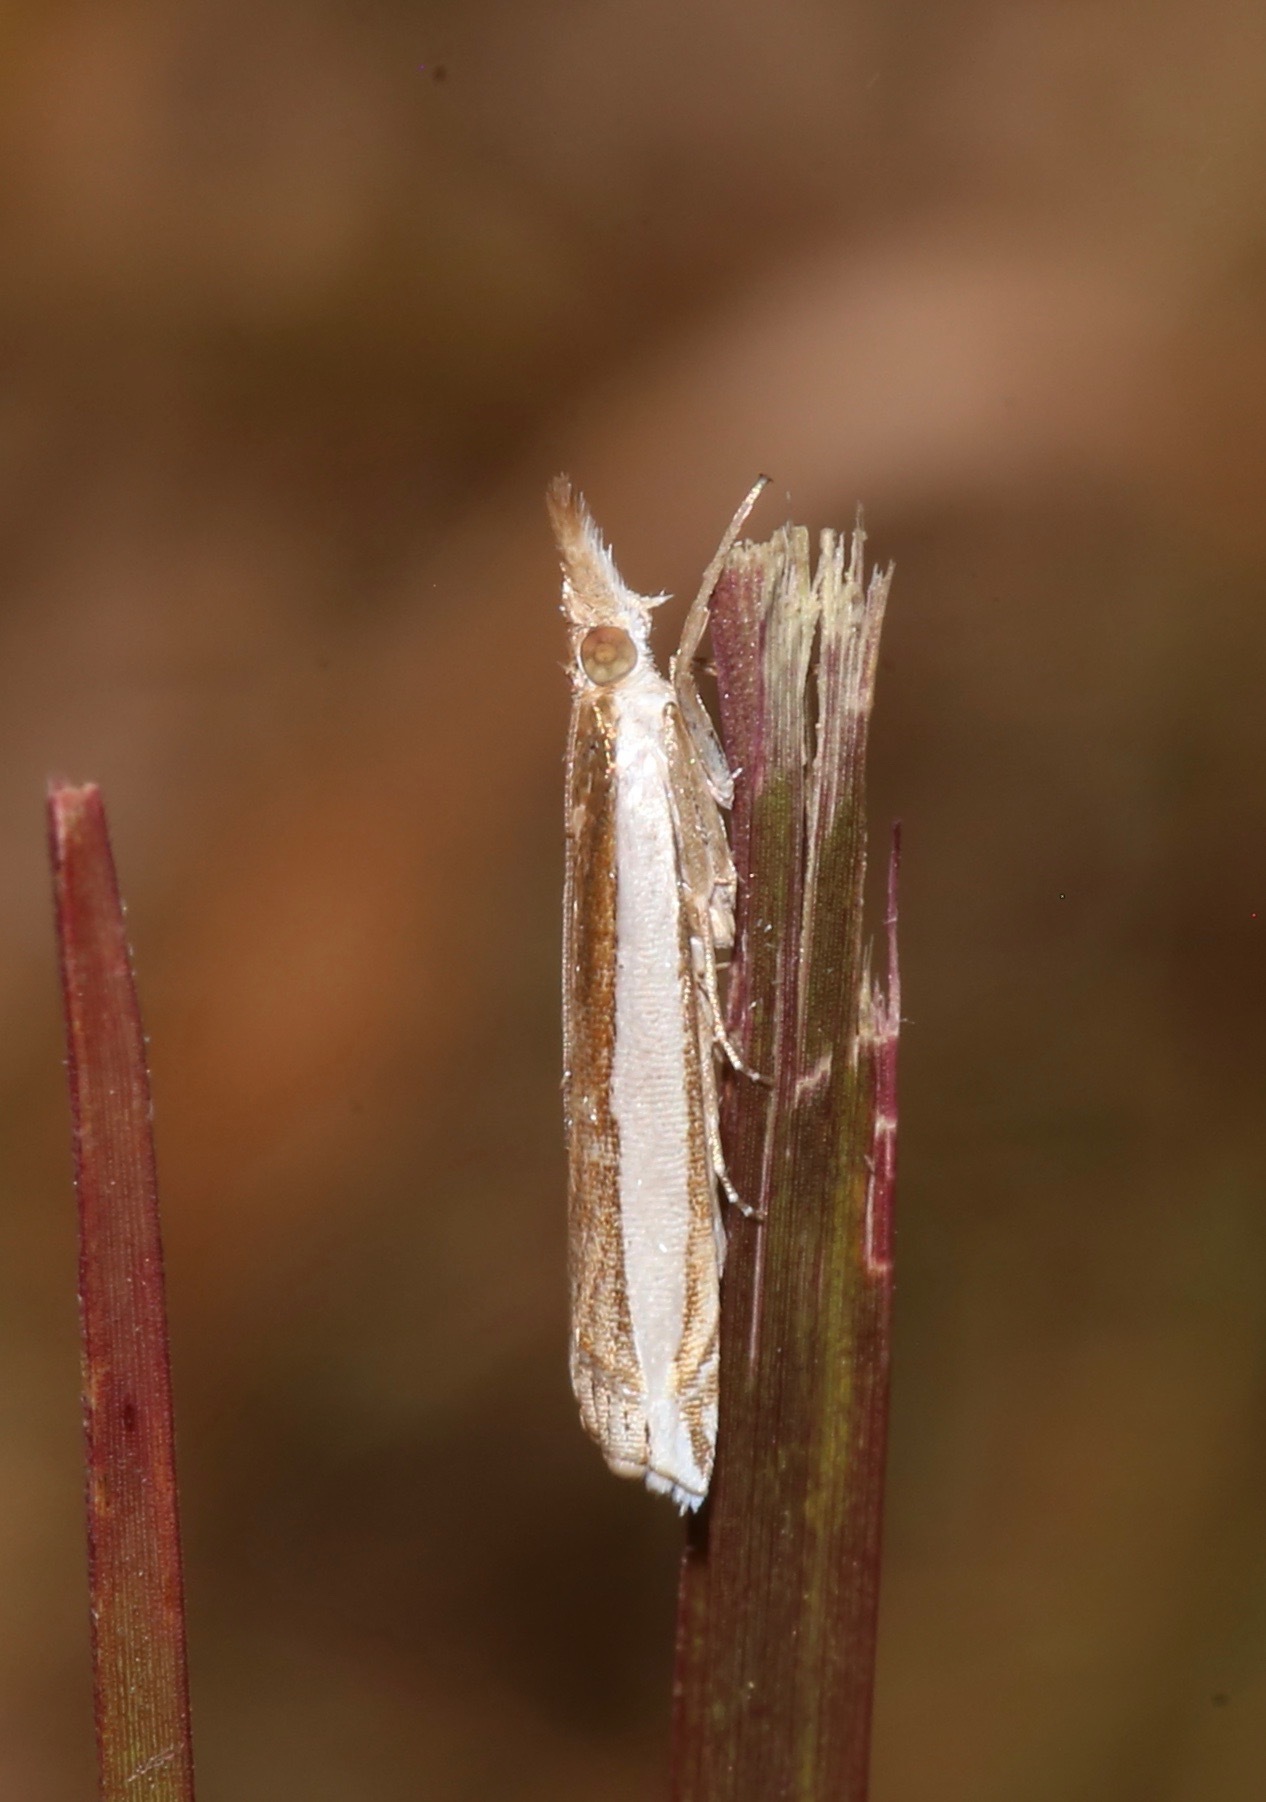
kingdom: Animalia
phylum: Arthropoda
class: Insecta
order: Lepidoptera
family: Crambidae
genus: Crambus
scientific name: Crambus quinquareatus
